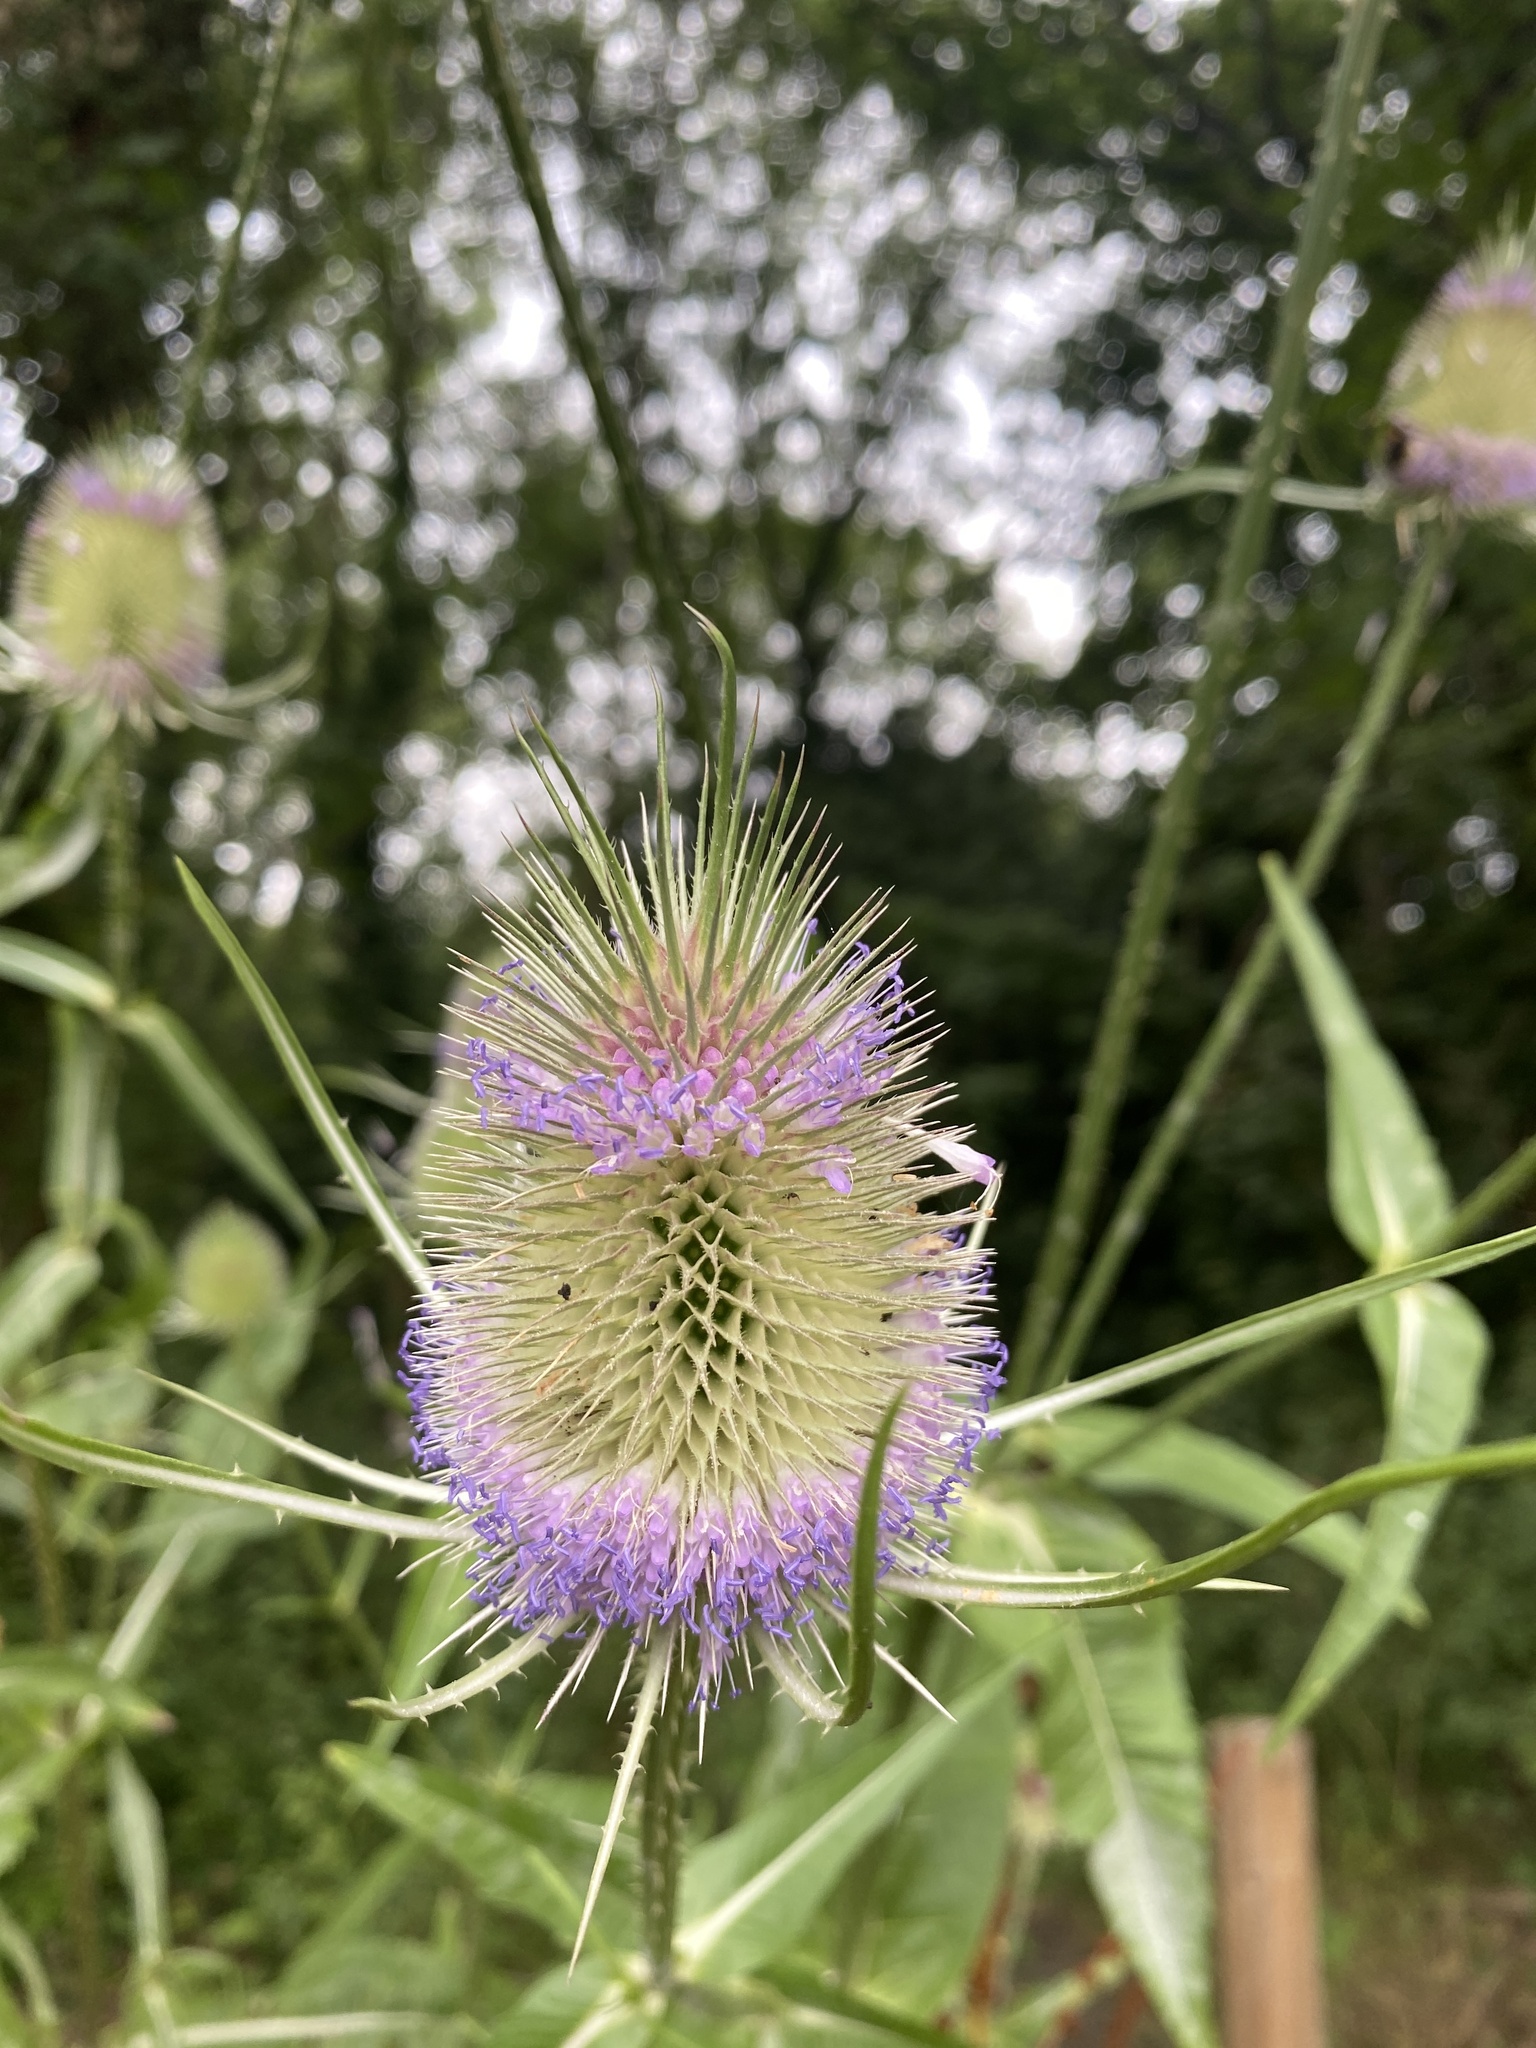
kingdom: Plantae
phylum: Tracheophyta
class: Magnoliopsida
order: Dipsacales
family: Caprifoliaceae
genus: Dipsacus
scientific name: Dipsacus fullonum
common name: Teasel
